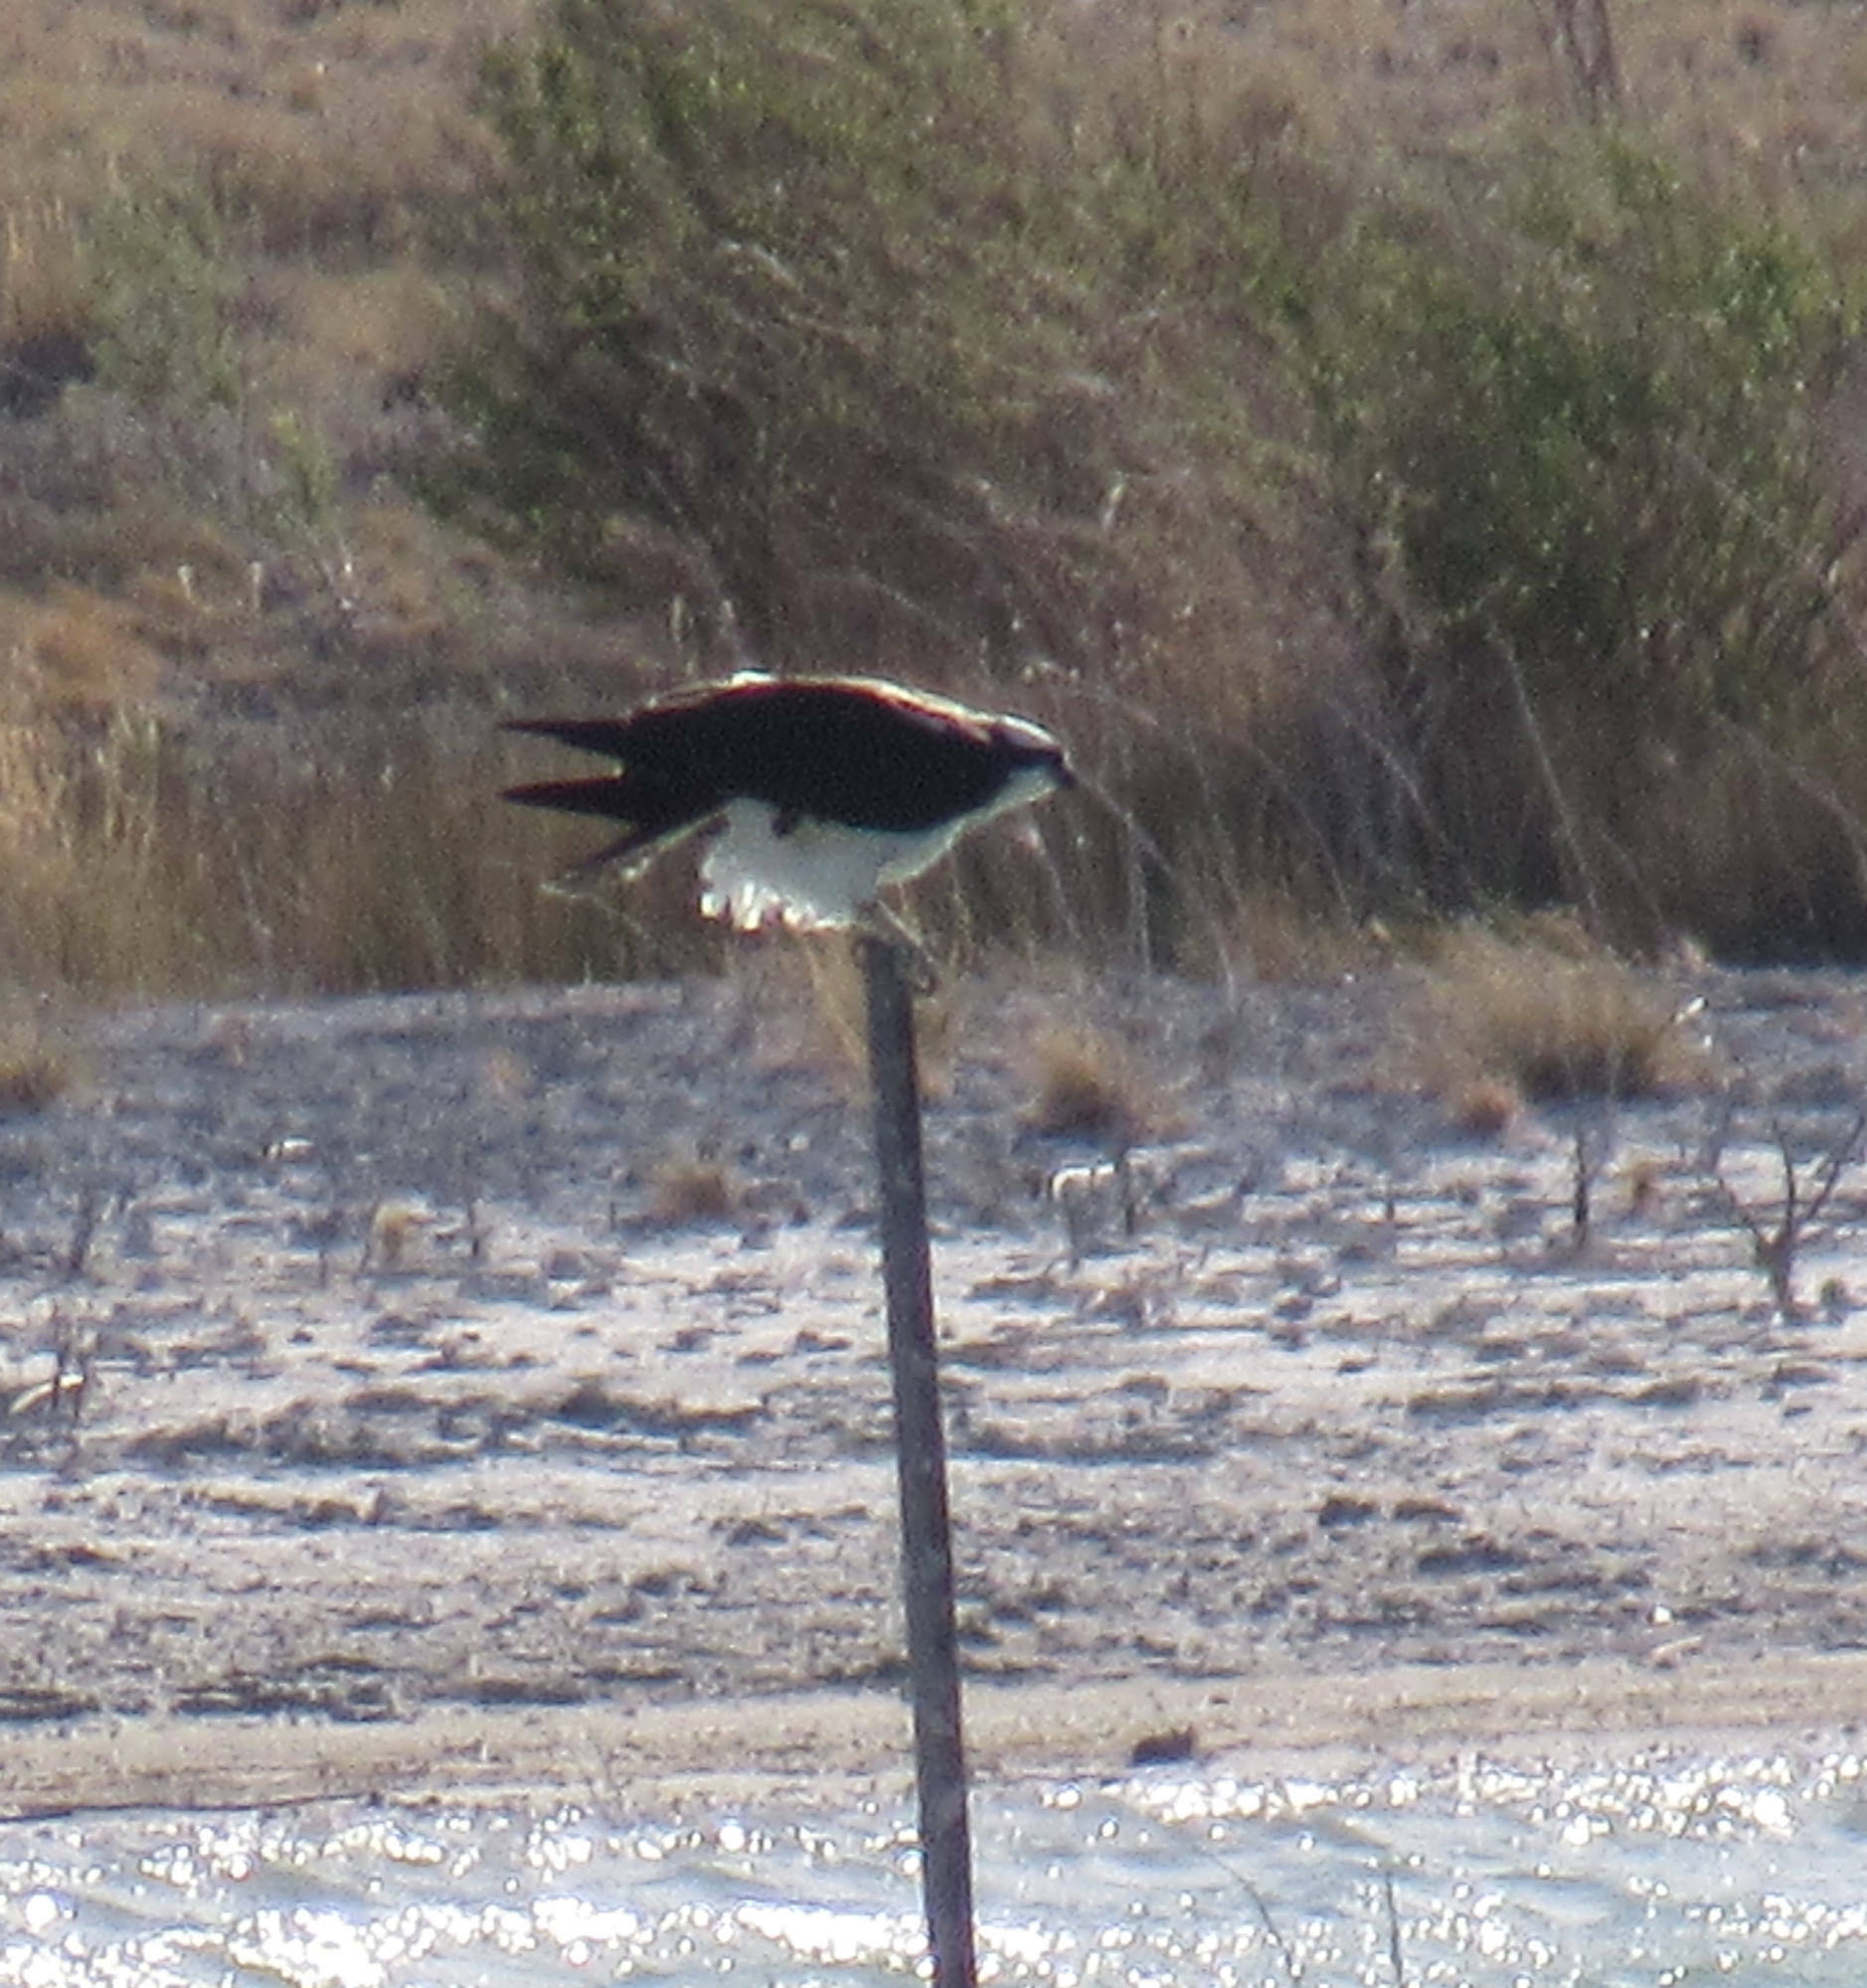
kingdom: Animalia
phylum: Chordata
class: Aves
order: Accipitriformes
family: Pandionidae
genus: Pandion
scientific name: Pandion haliaetus
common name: Osprey
